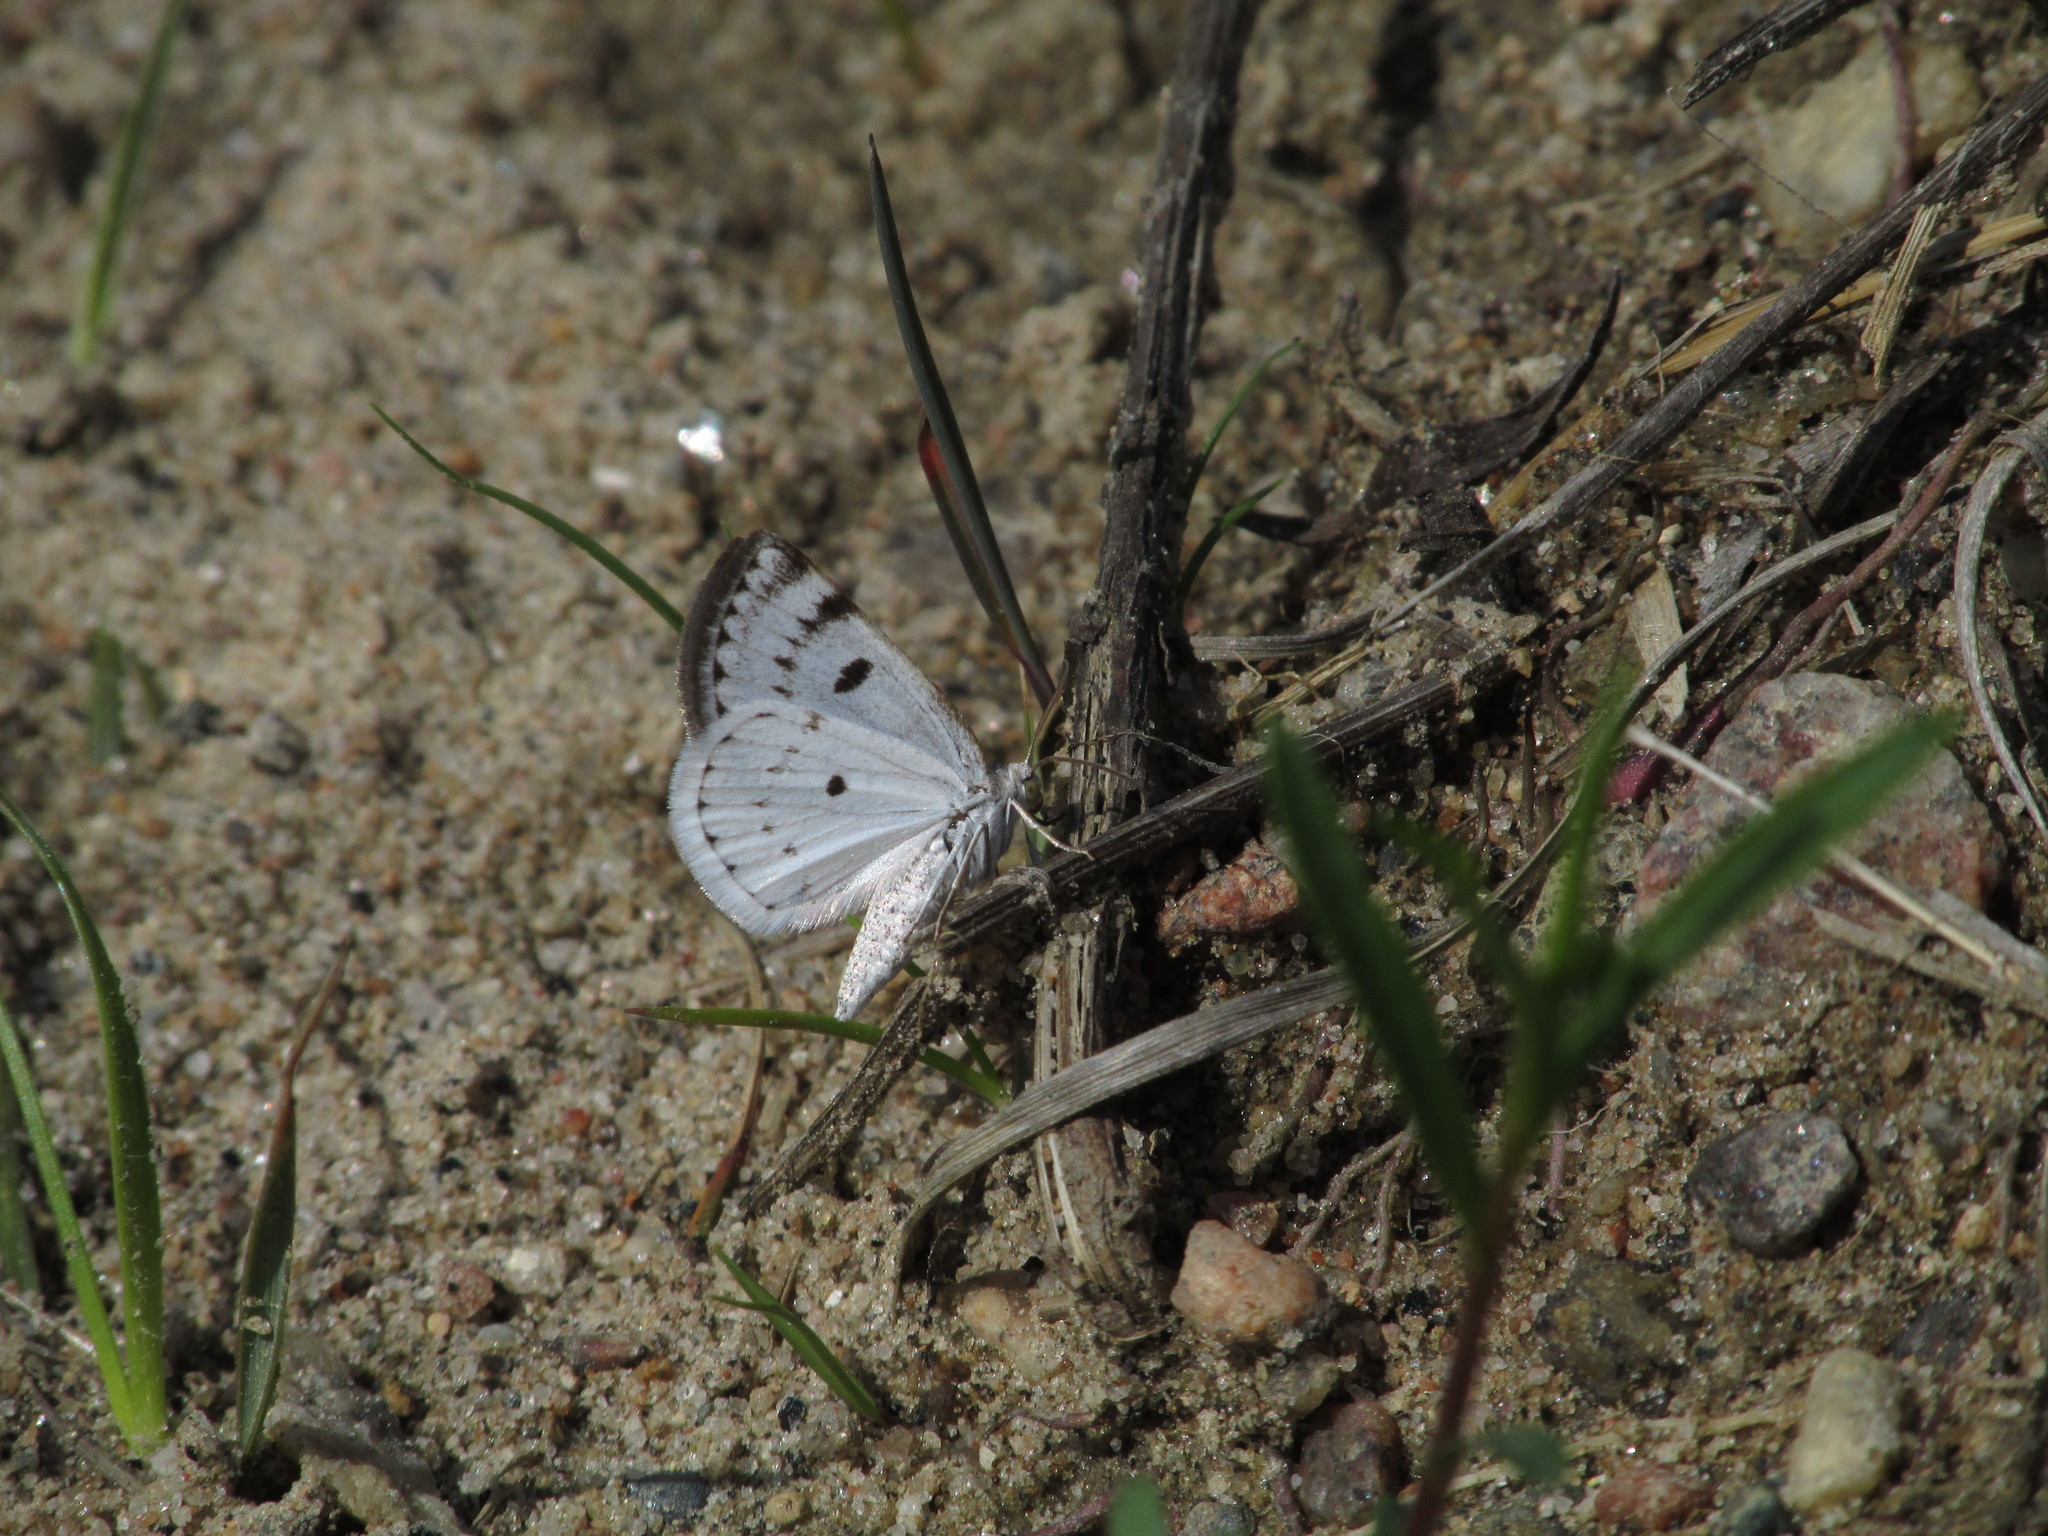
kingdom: Animalia
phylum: Arthropoda
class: Insecta
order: Lepidoptera
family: Geometridae
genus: Lomographa
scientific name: Lomographa semiclarata
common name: Bluish spring moth
